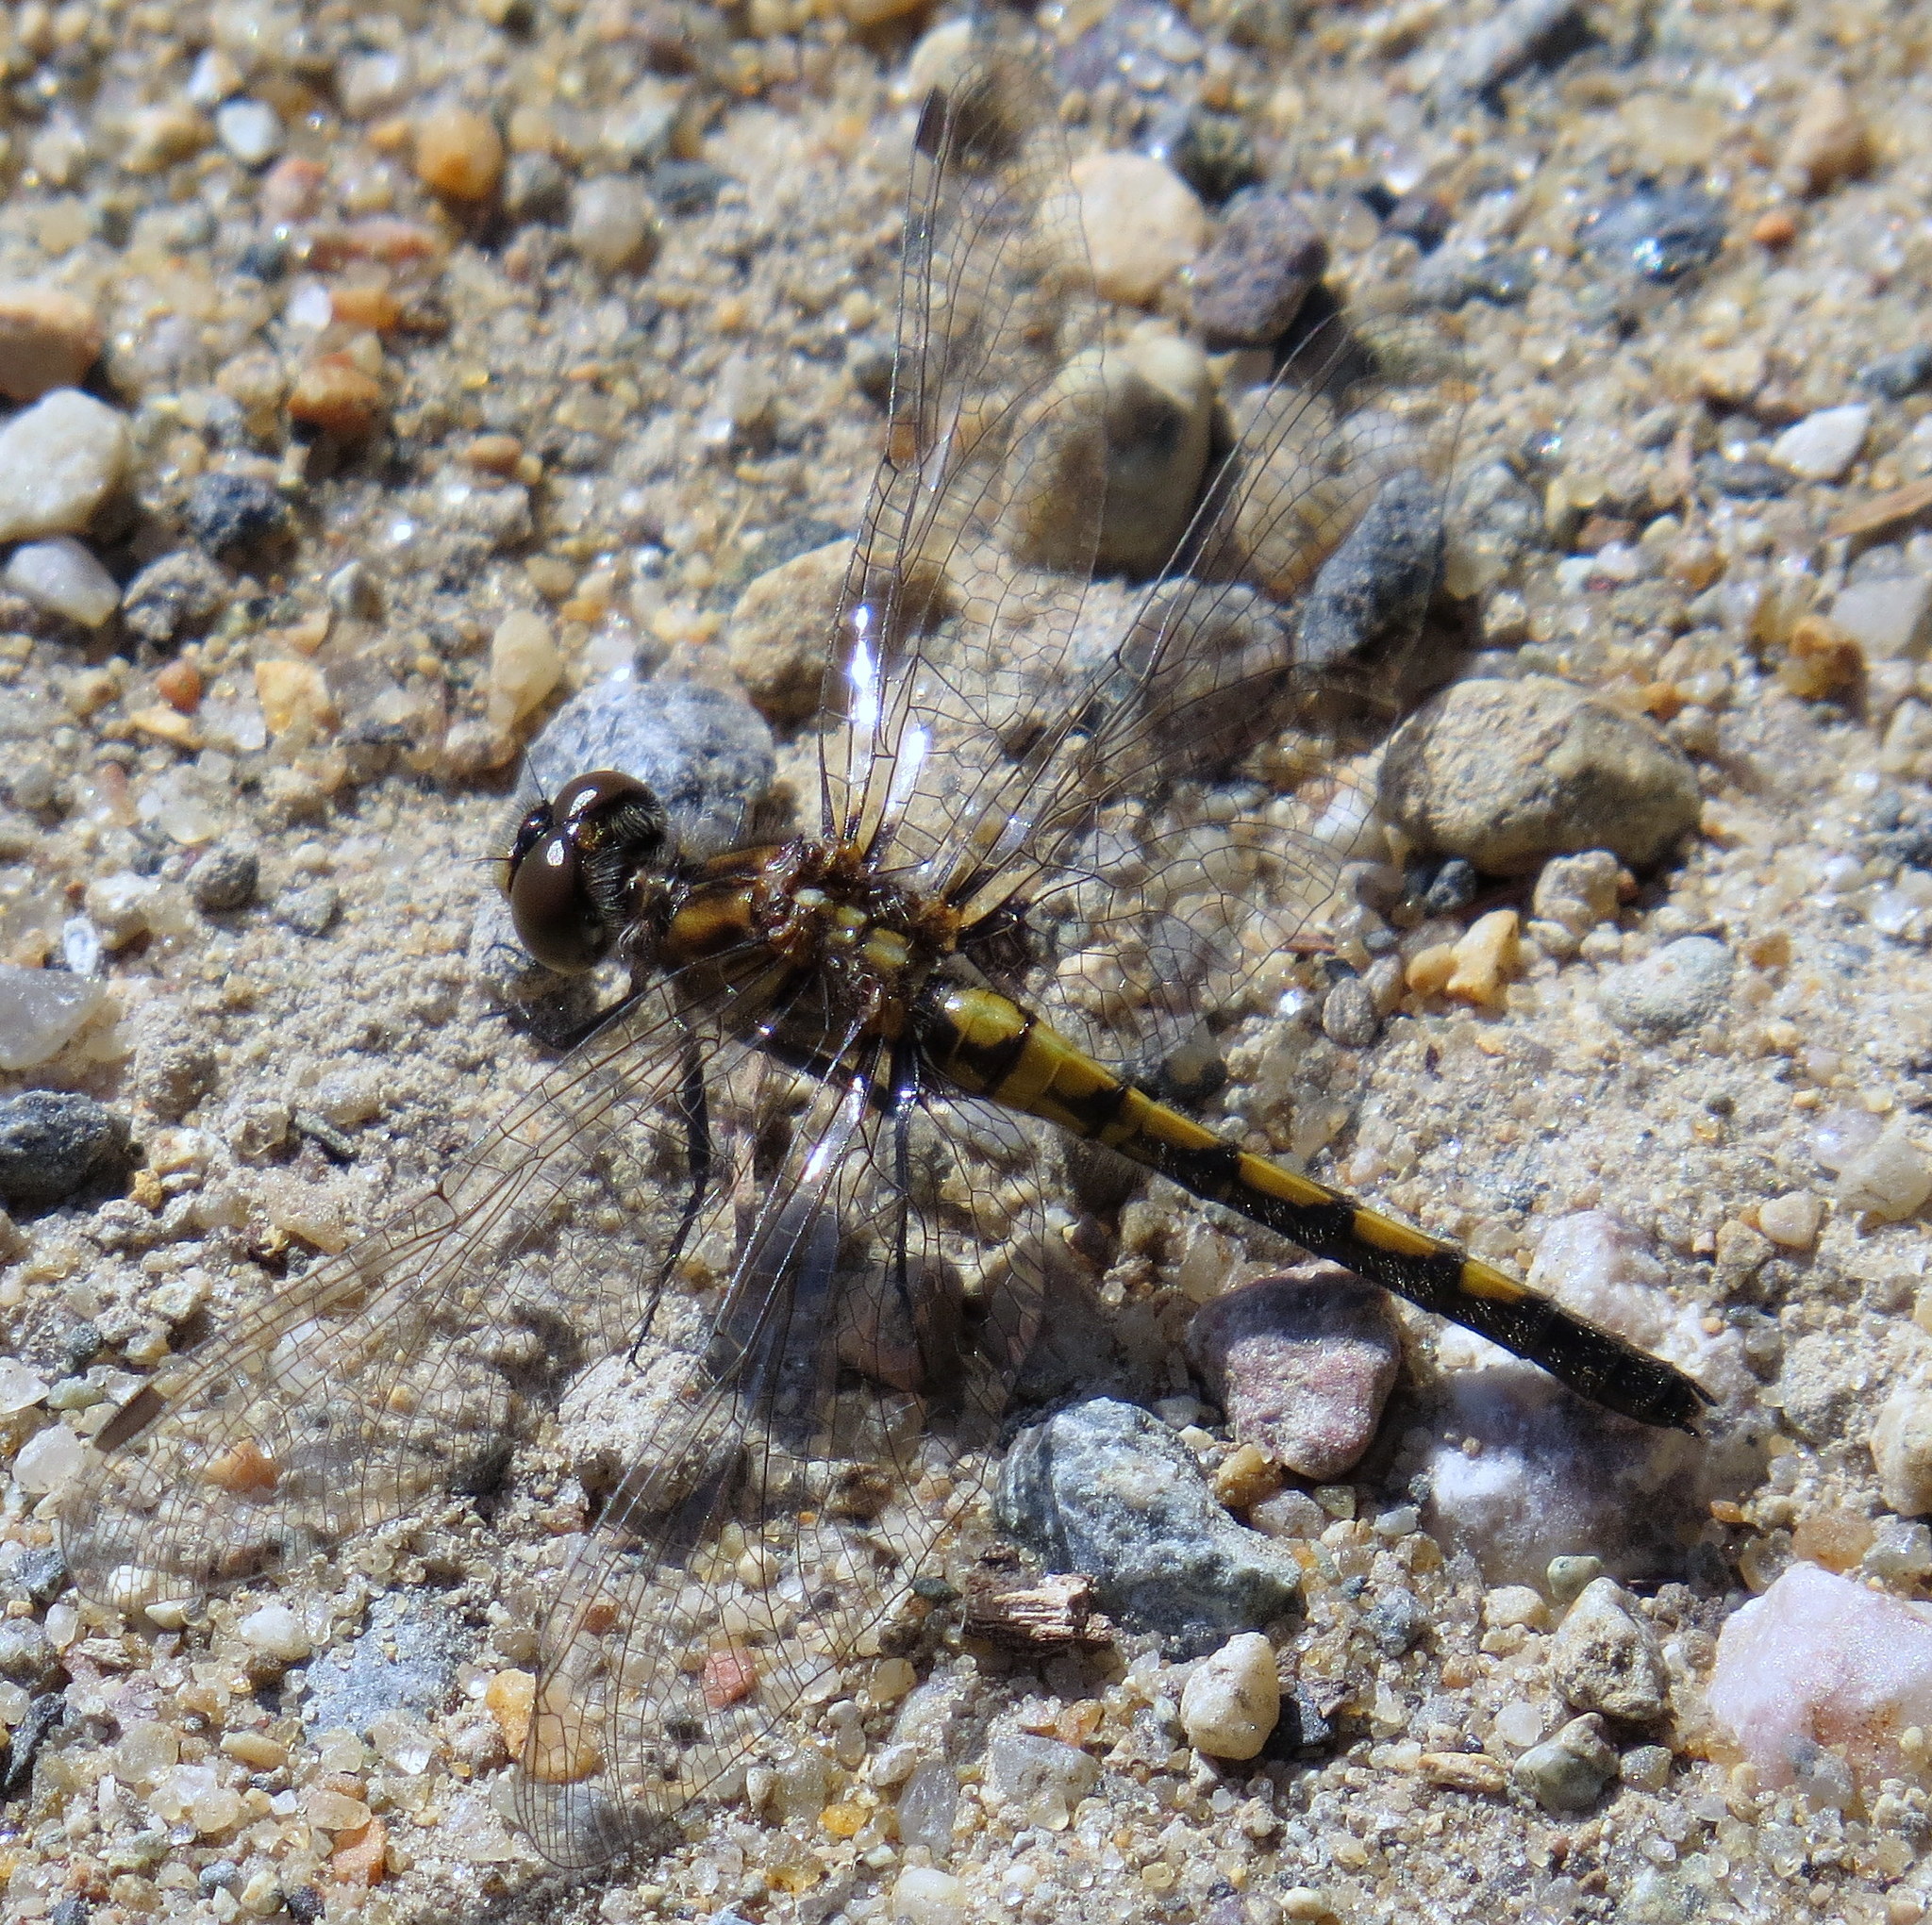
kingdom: Animalia
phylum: Arthropoda
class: Insecta
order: Odonata
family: Libellulidae
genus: Leucorrhinia
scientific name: Leucorrhinia hudsonica
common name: Hudsonian whiteface
